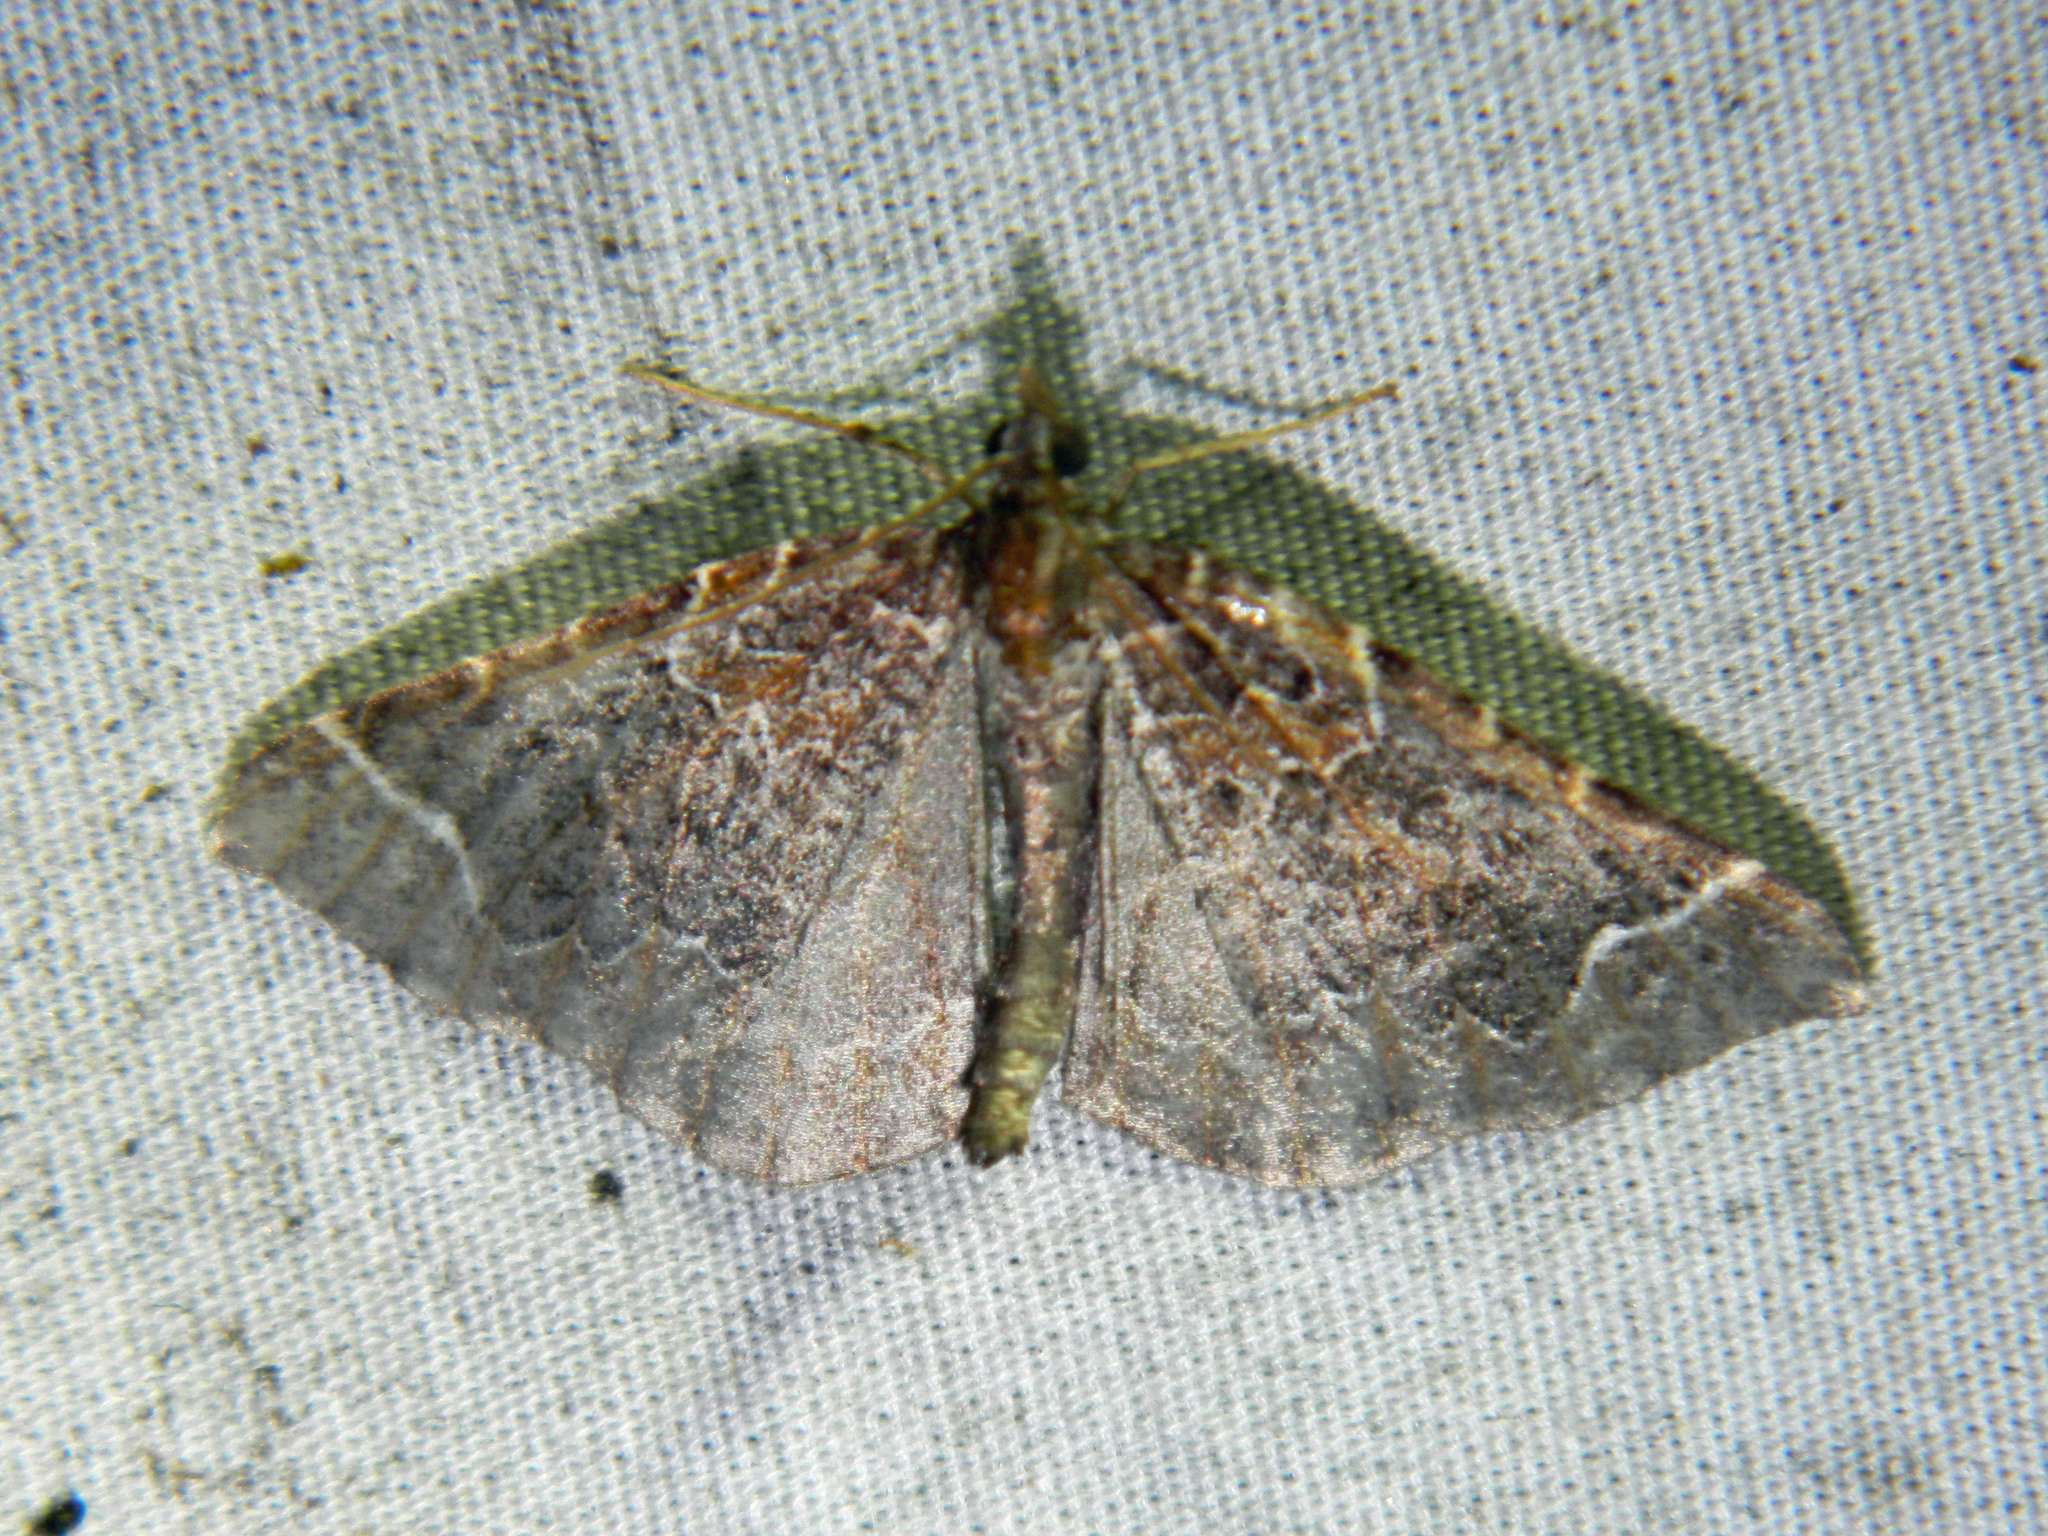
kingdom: Animalia
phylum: Arthropoda
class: Insecta
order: Lepidoptera
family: Geometridae
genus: Eulithis
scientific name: Eulithis flavibrunneata
